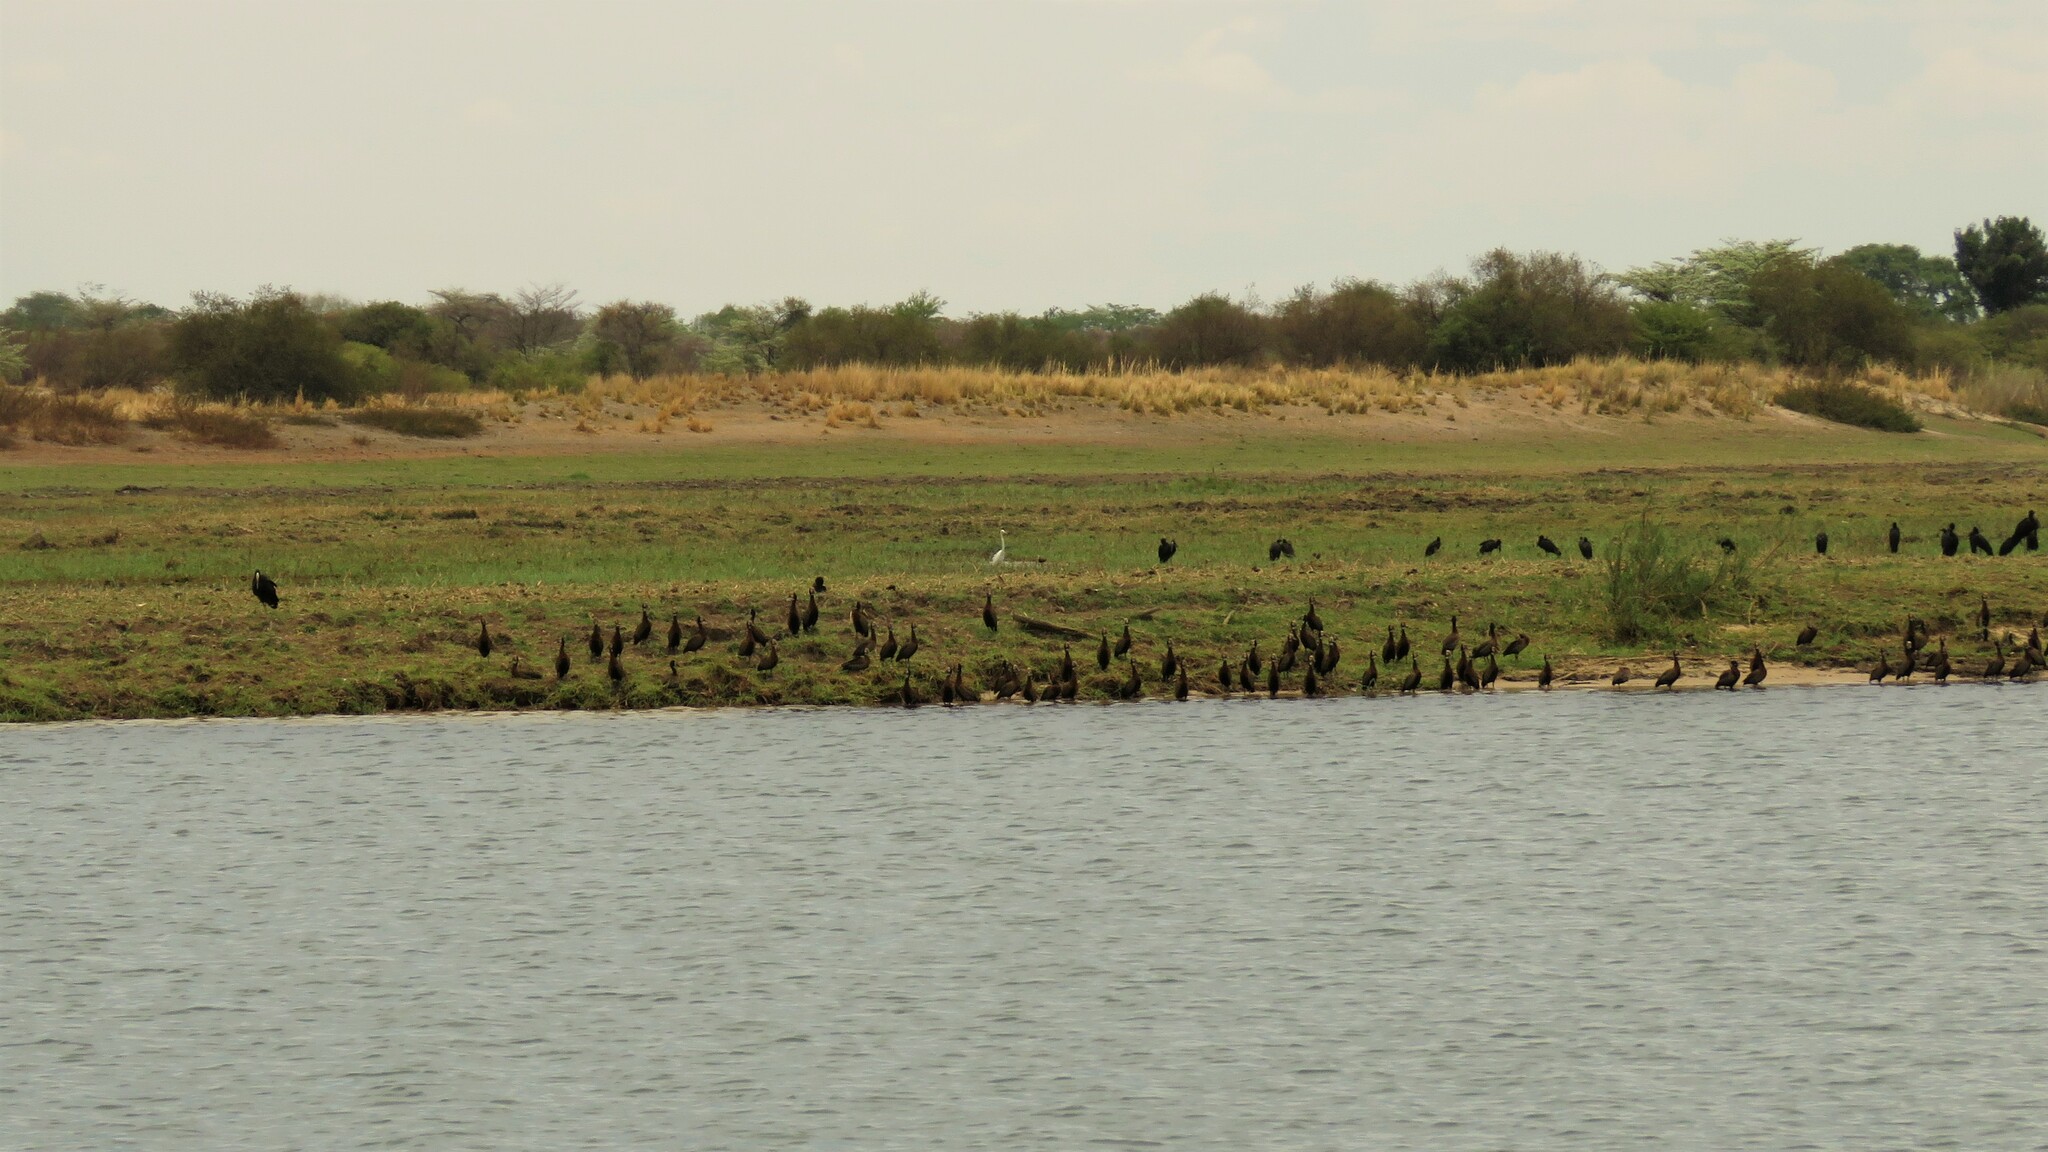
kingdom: Animalia
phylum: Chordata
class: Aves
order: Ciconiiformes
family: Ciconiidae
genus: Anastomus
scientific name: Anastomus lamelligerus
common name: African openbill
